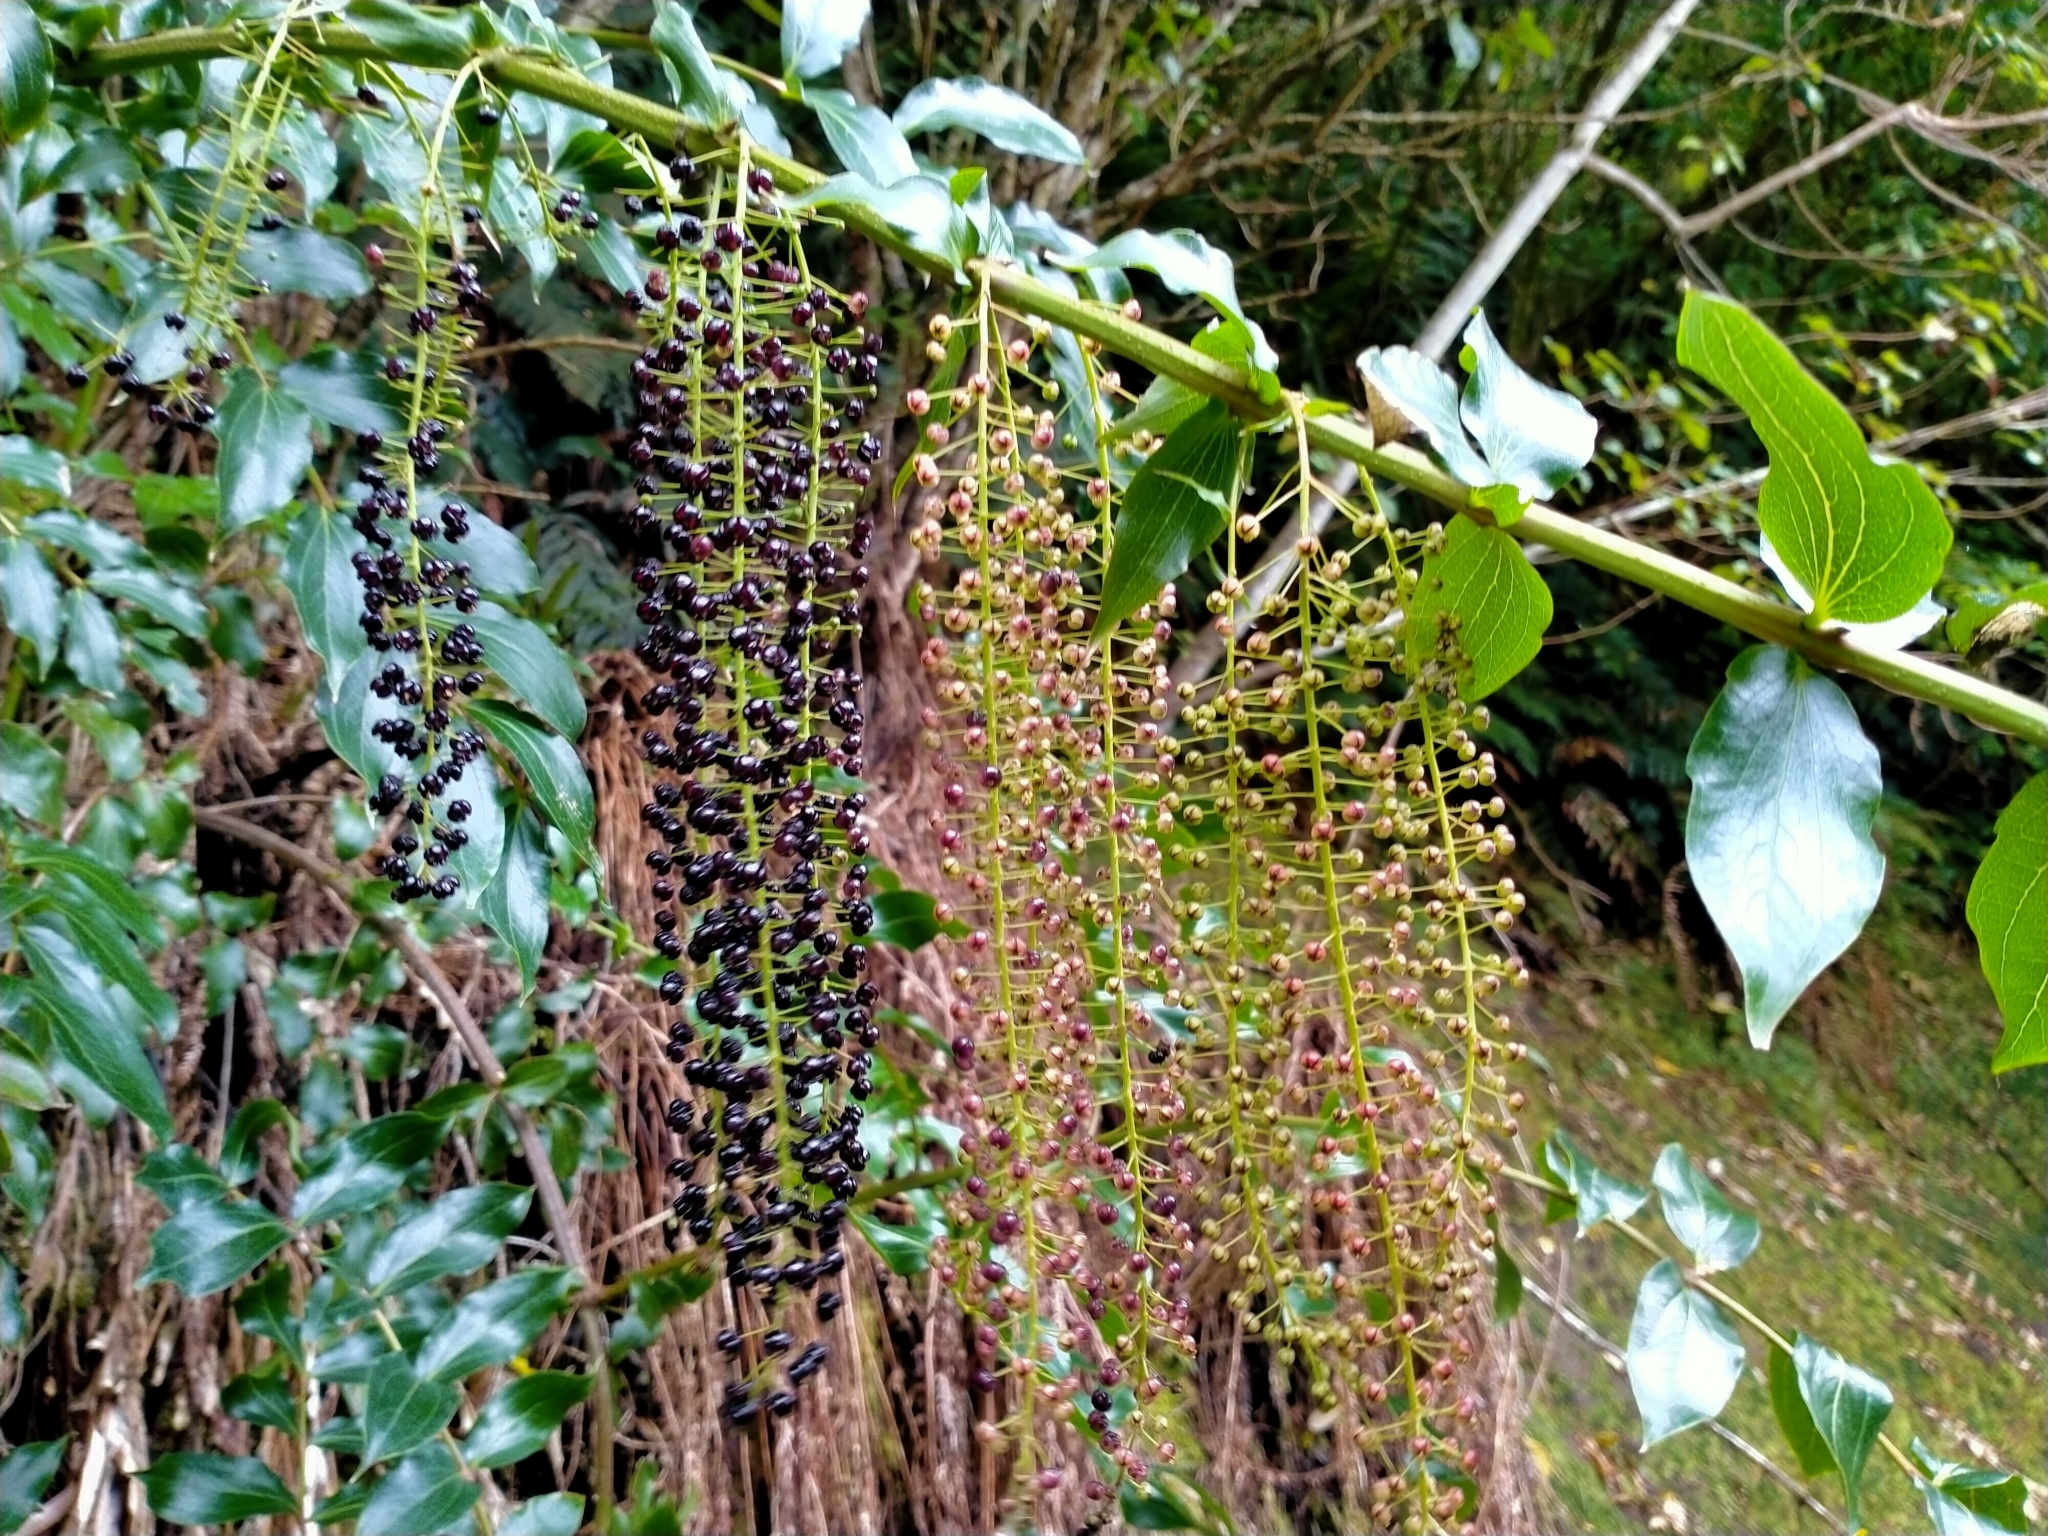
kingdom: Plantae
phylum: Tracheophyta
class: Magnoliopsida
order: Cucurbitales
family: Coriariaceae
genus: Coriaria
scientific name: Coriaria arborea
